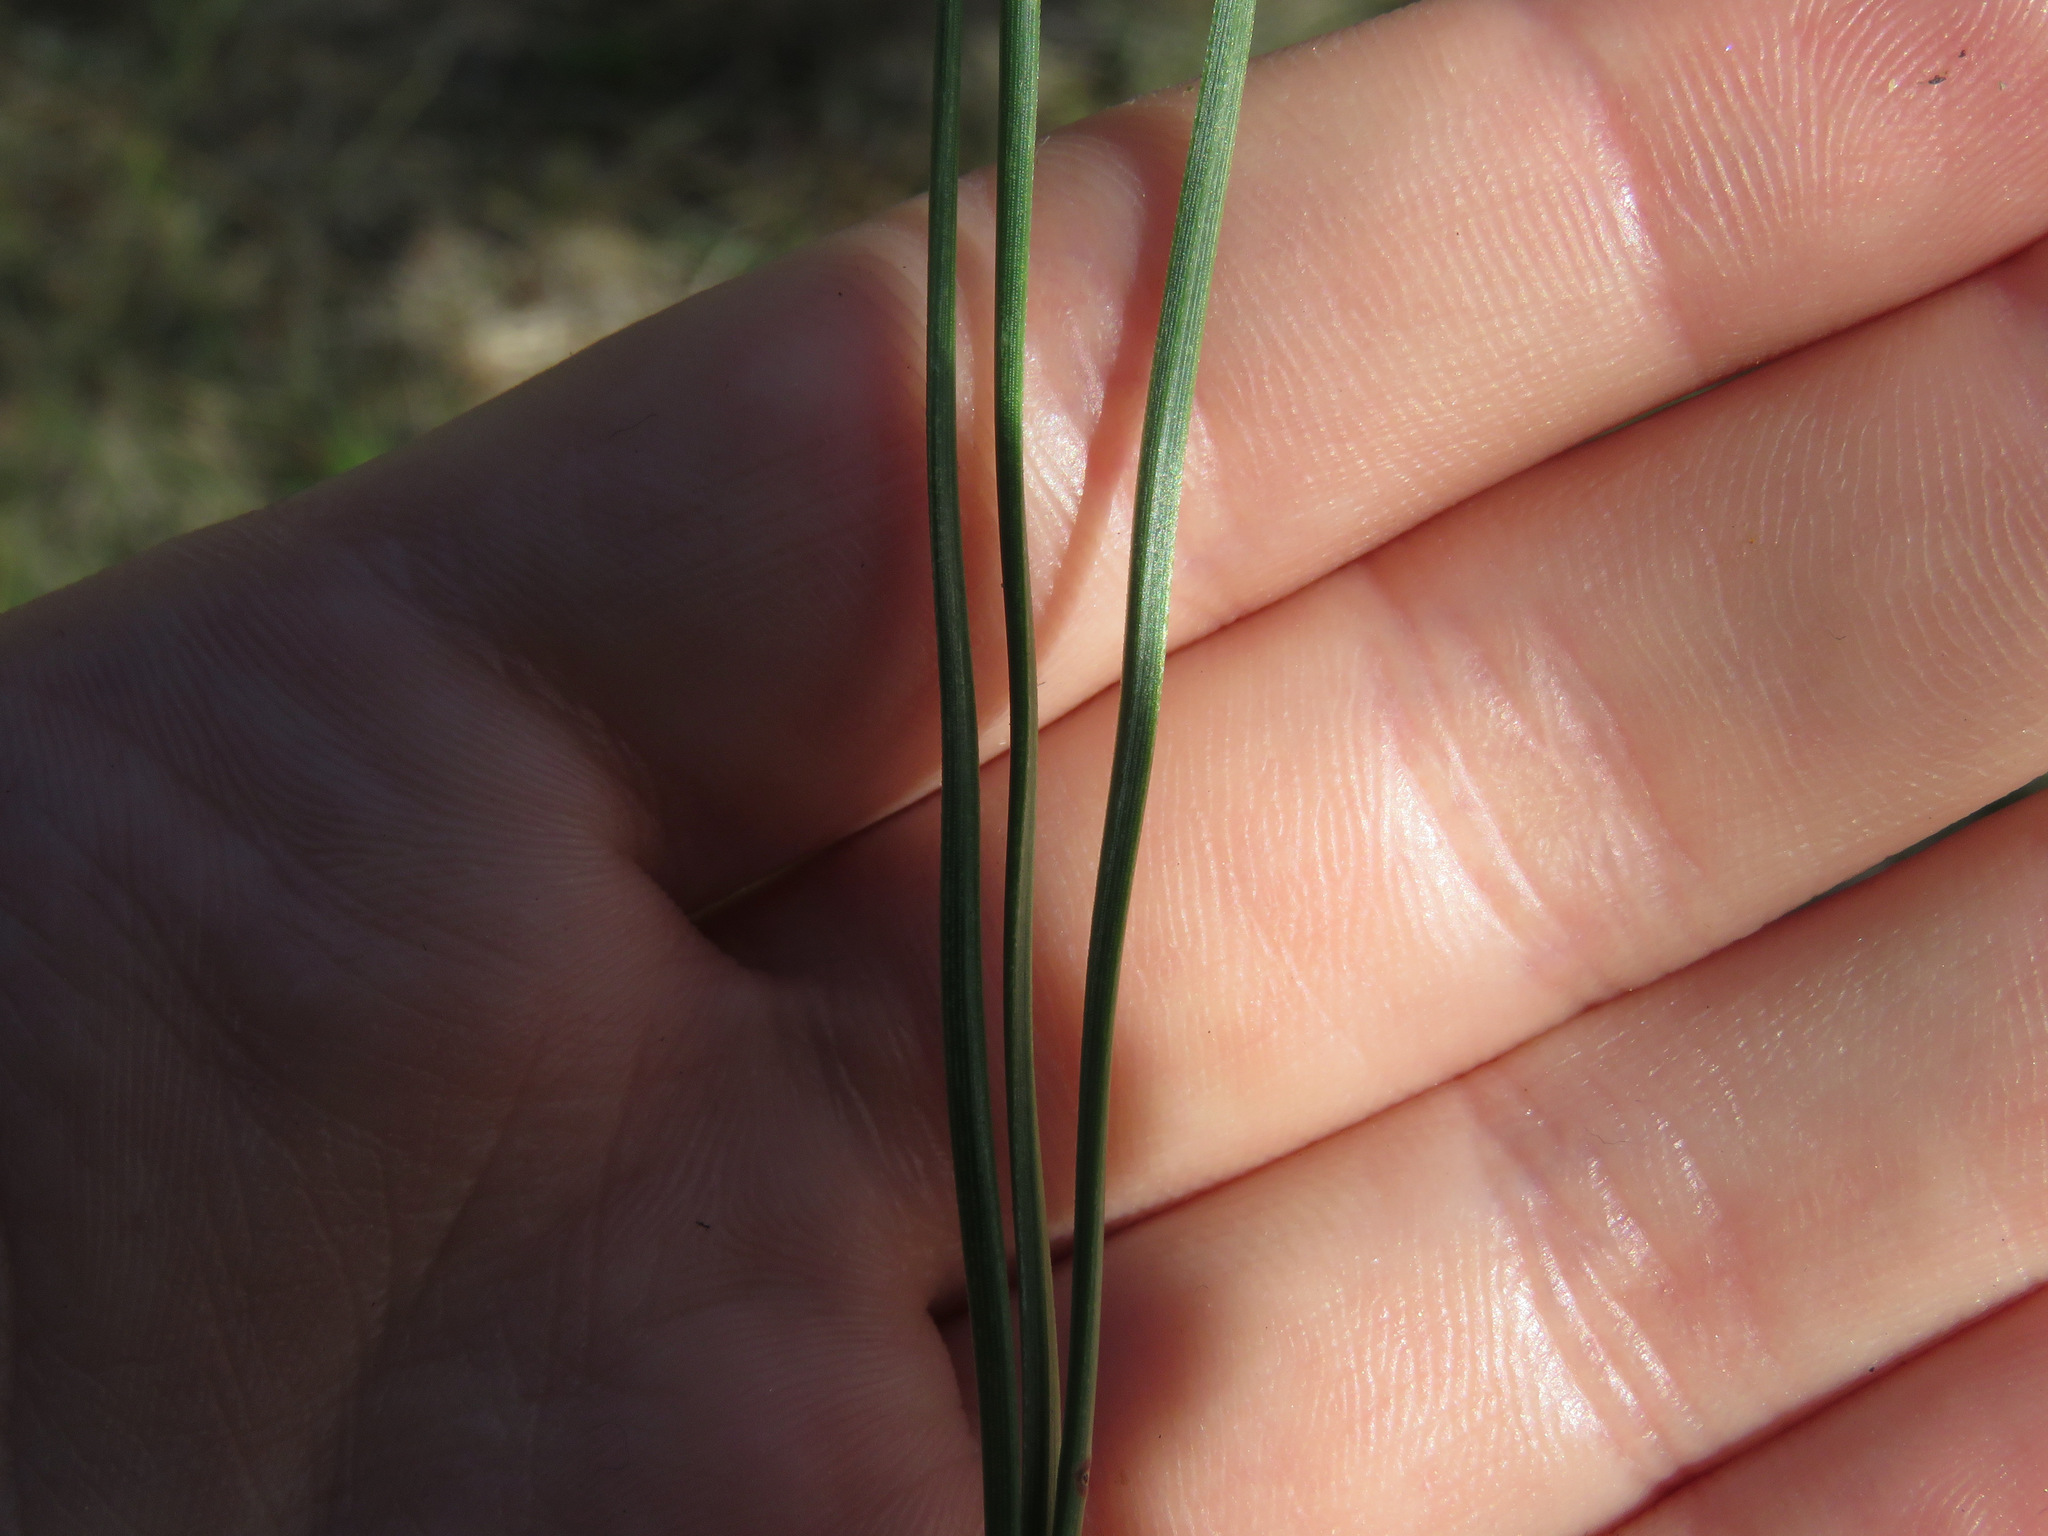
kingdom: Plantae
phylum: Tracheophyta
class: Pinopsida
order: Pinales
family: Pinaceae
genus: Pinus
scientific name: Pinus ponderosa
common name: Western yellow-pine
